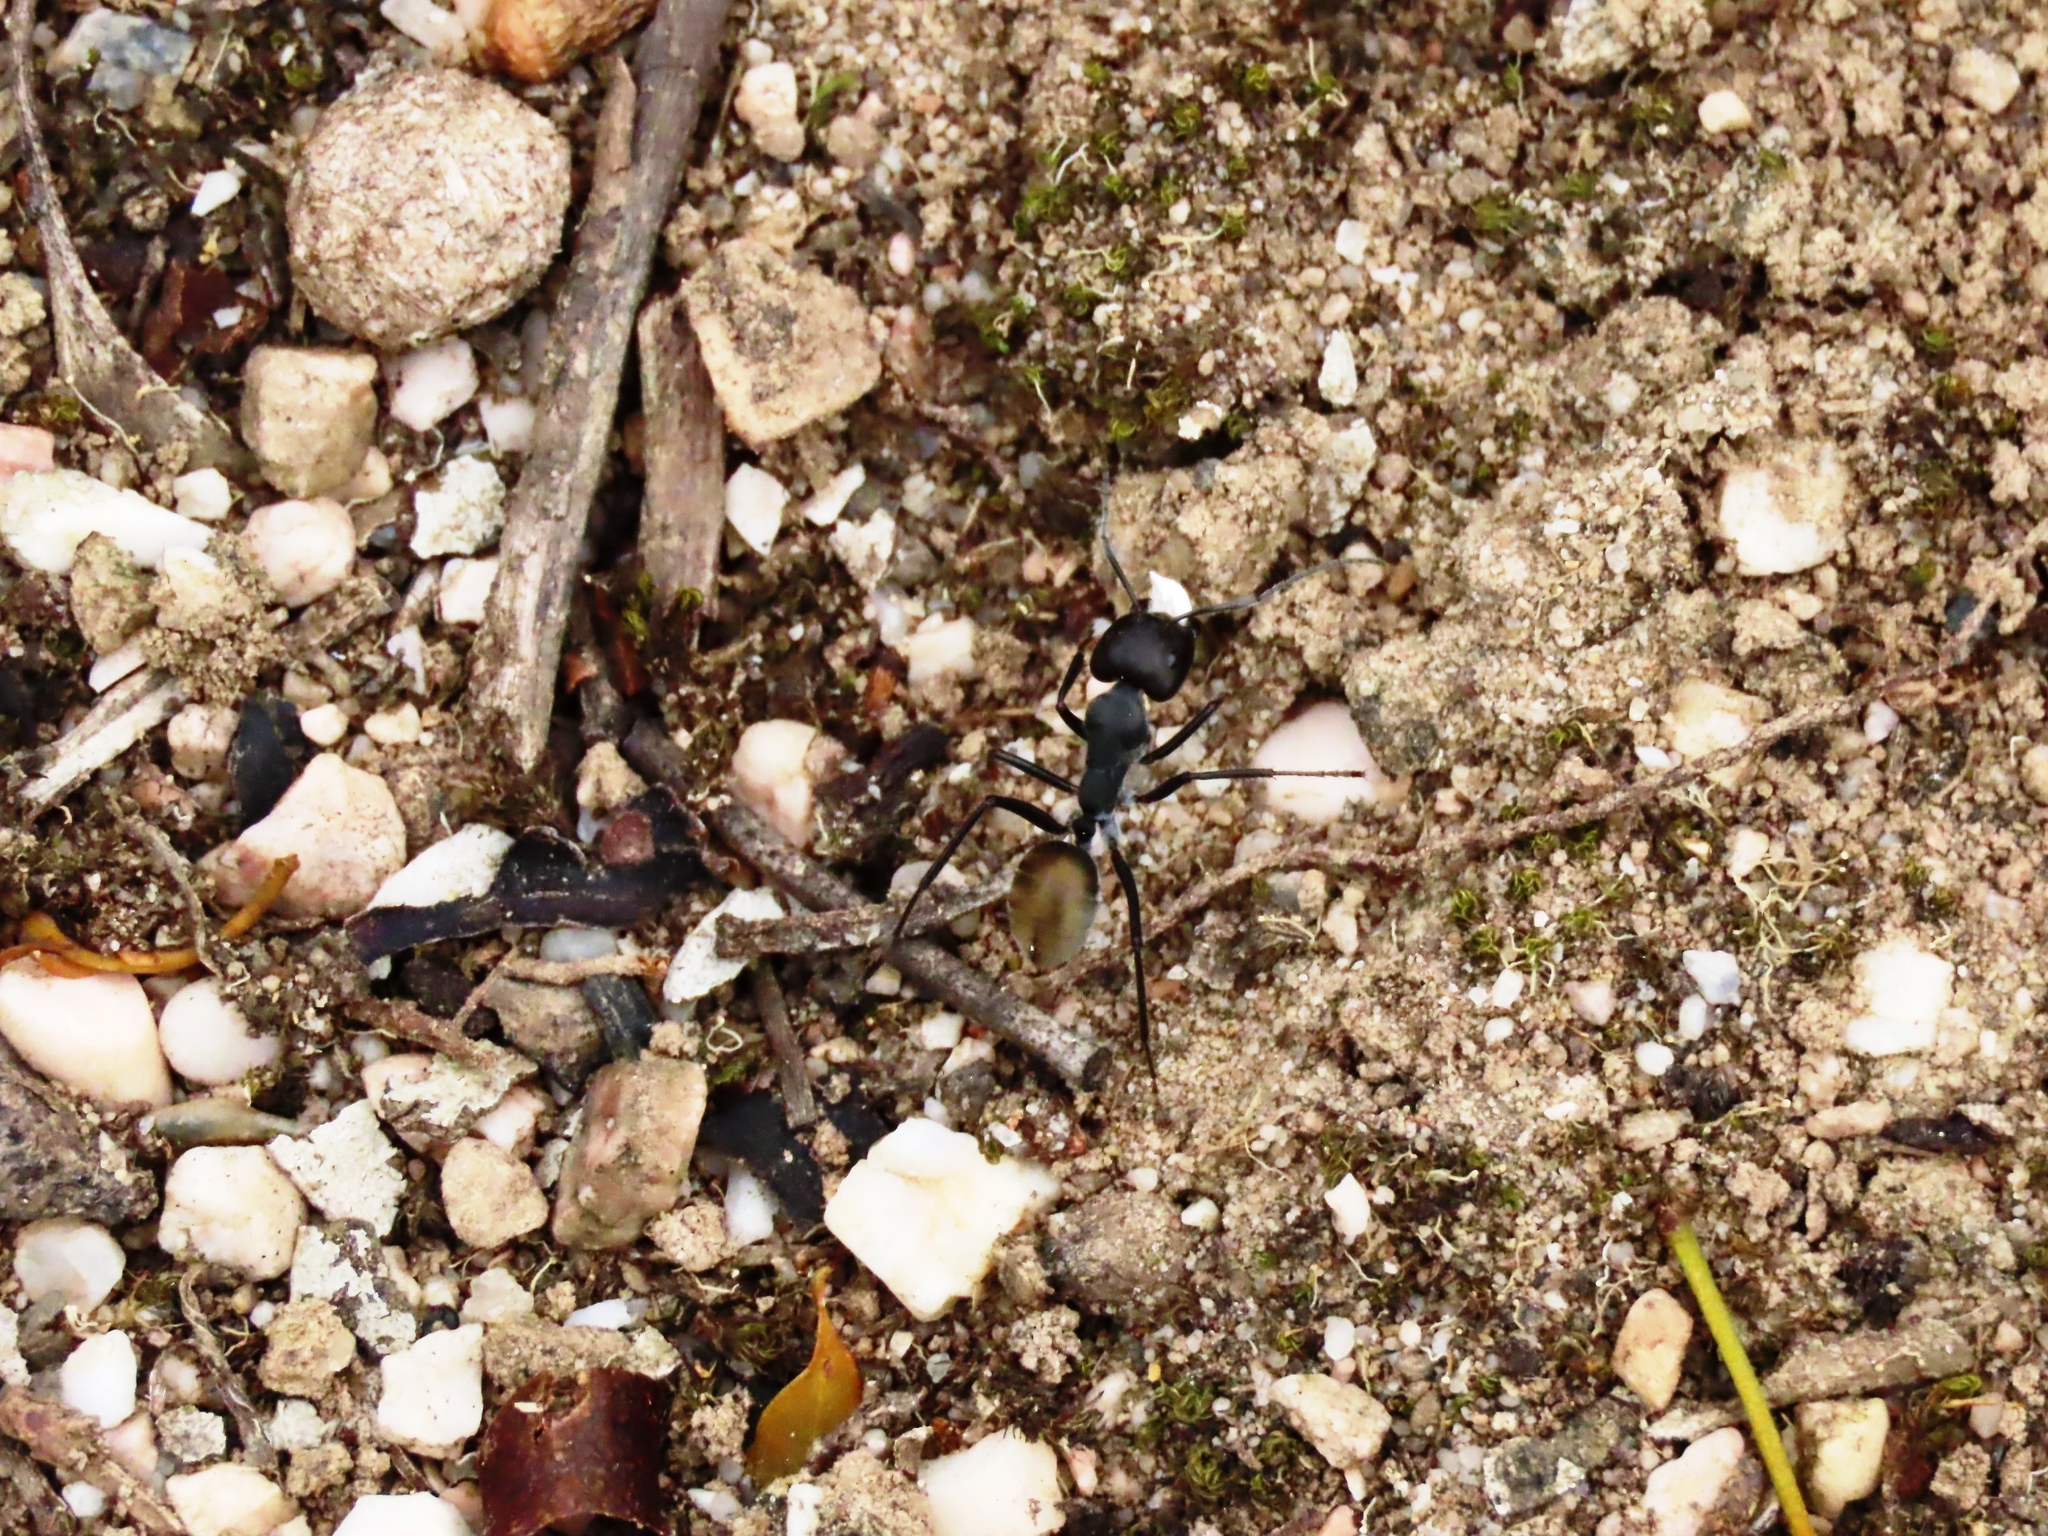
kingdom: Animalia
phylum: Arthropoda
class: Insecta
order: Hymenoptera
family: Formicidae
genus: Camponotus
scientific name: Camponotus suffusus
